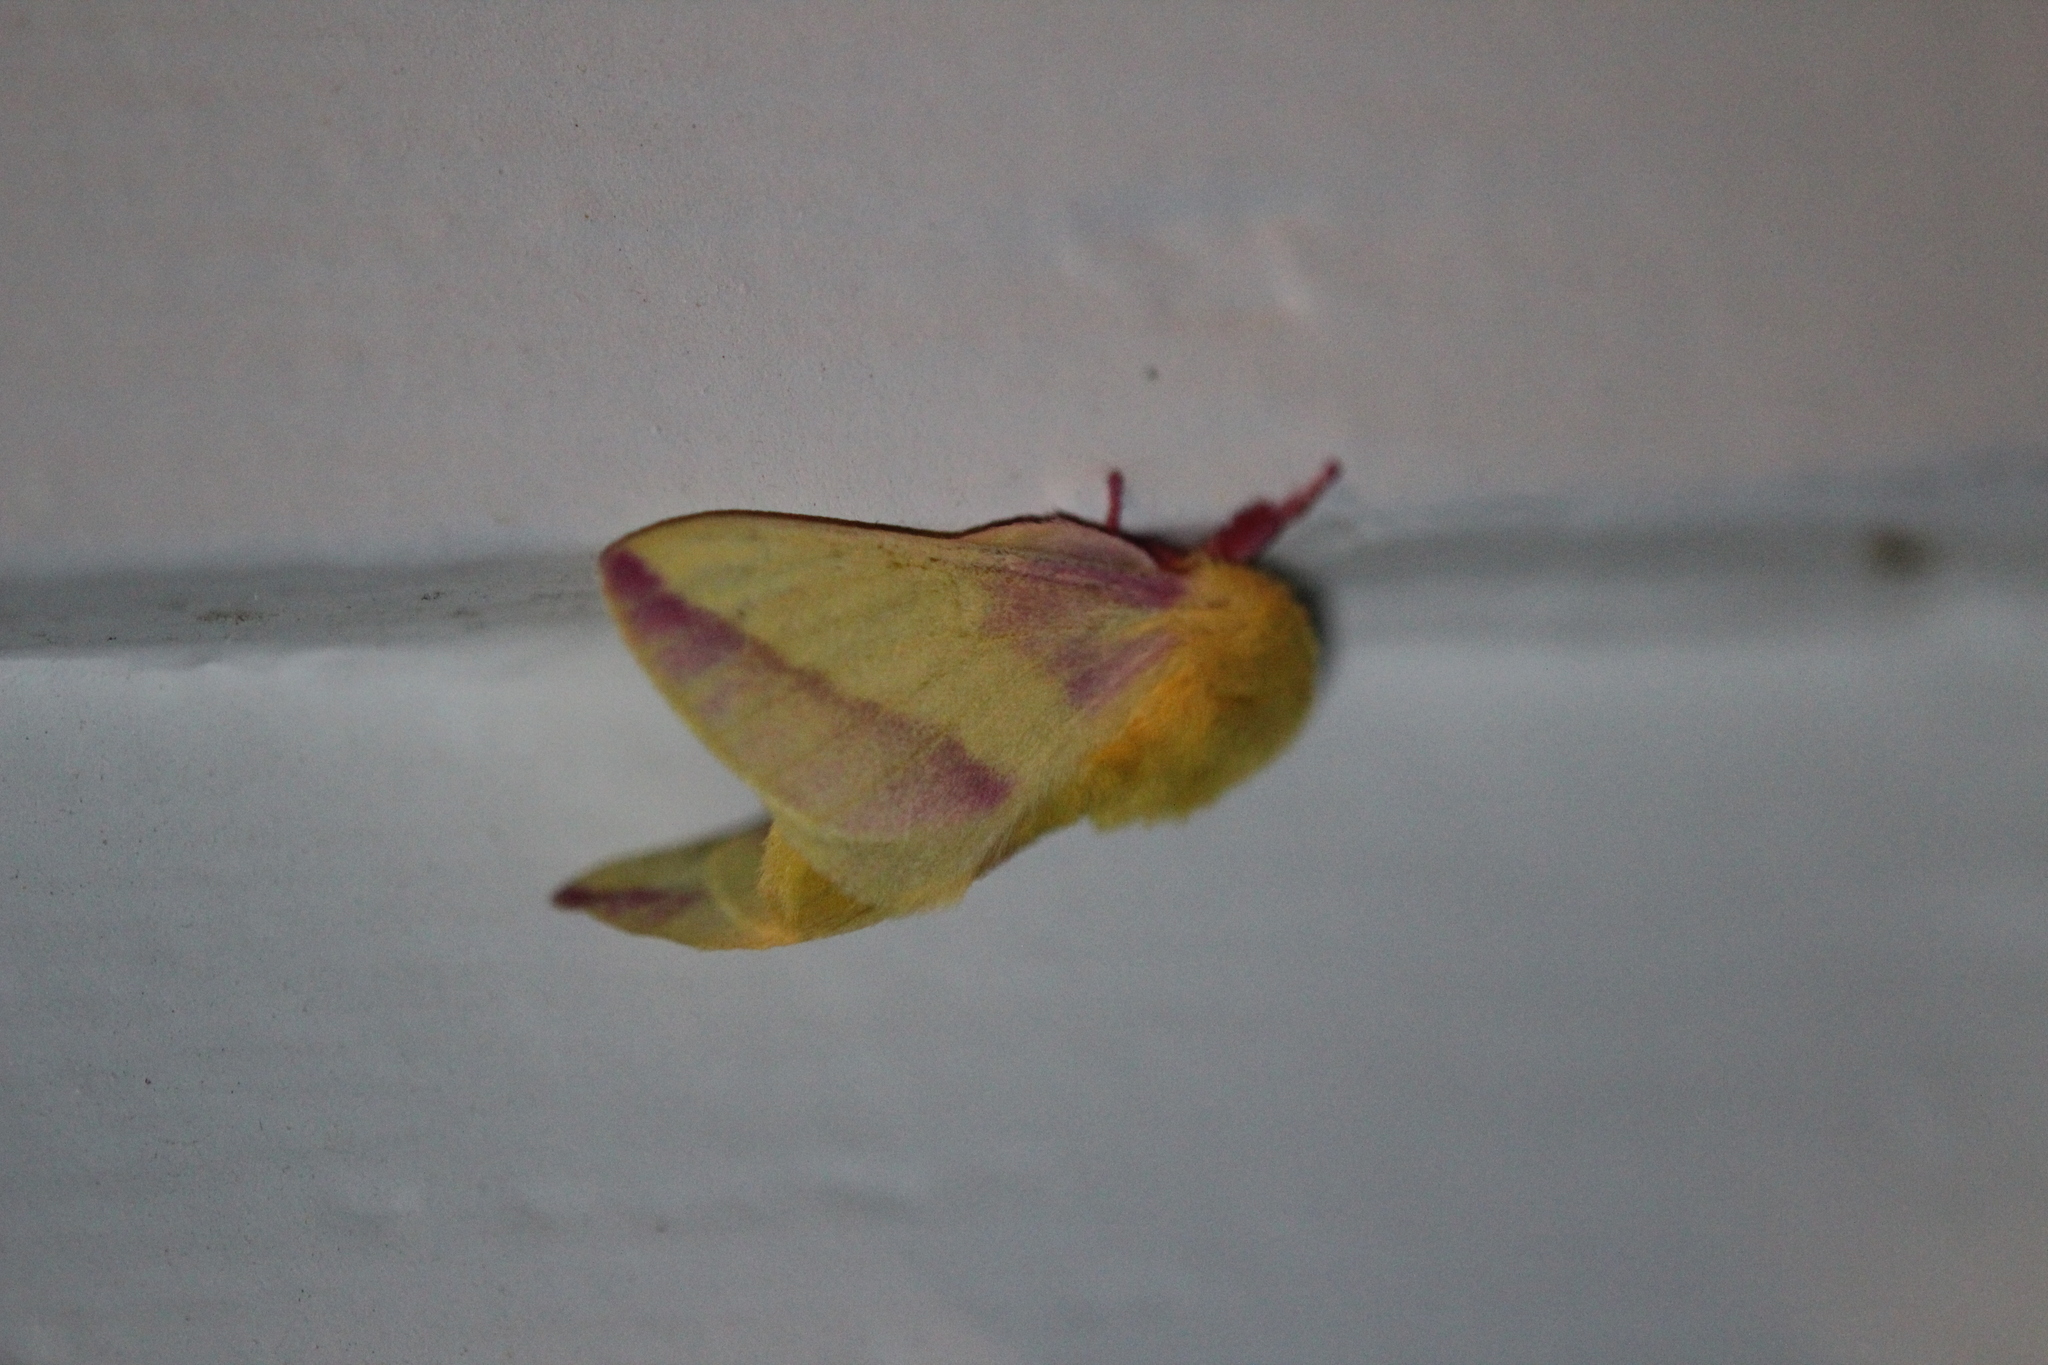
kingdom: Animalia
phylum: Arthropoda
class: Insecta
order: Lepidoptera
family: Saturniidae
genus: Dryocampa
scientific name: Dryocampa rubicunda
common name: Rosy maple moth
